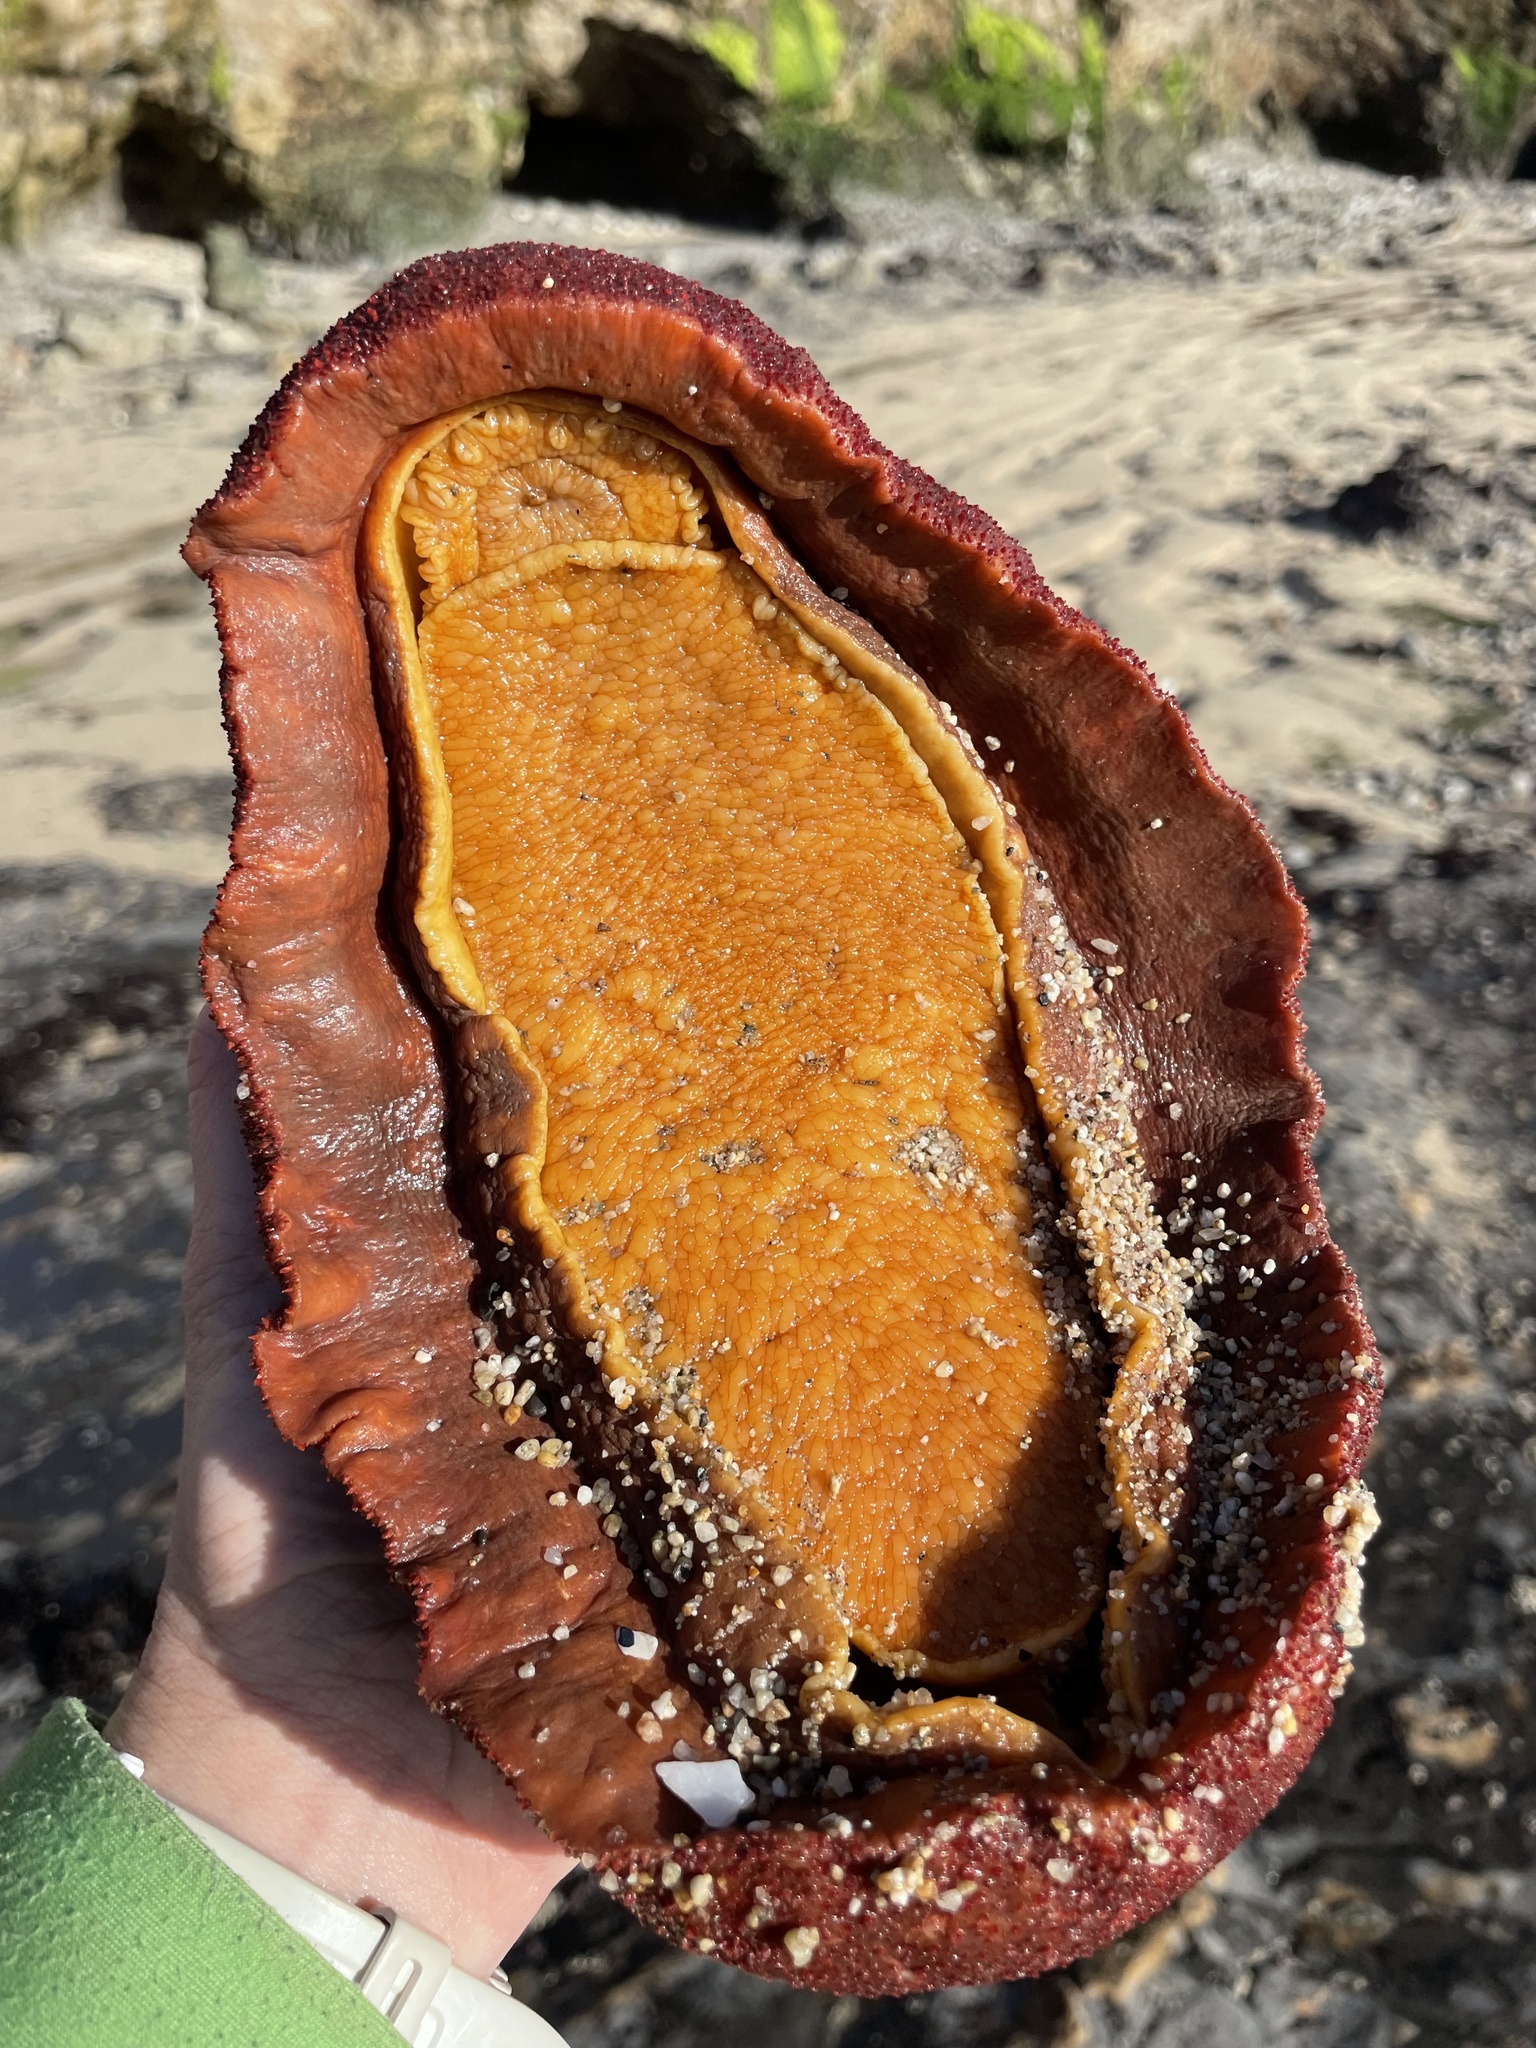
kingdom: Animalia
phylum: Mollusca
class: Polyplacophora
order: Chitonida
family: Acanthochitonidae
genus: Cryptochiton
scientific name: Cryptochiton stelleri
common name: Giant pacific chiton
